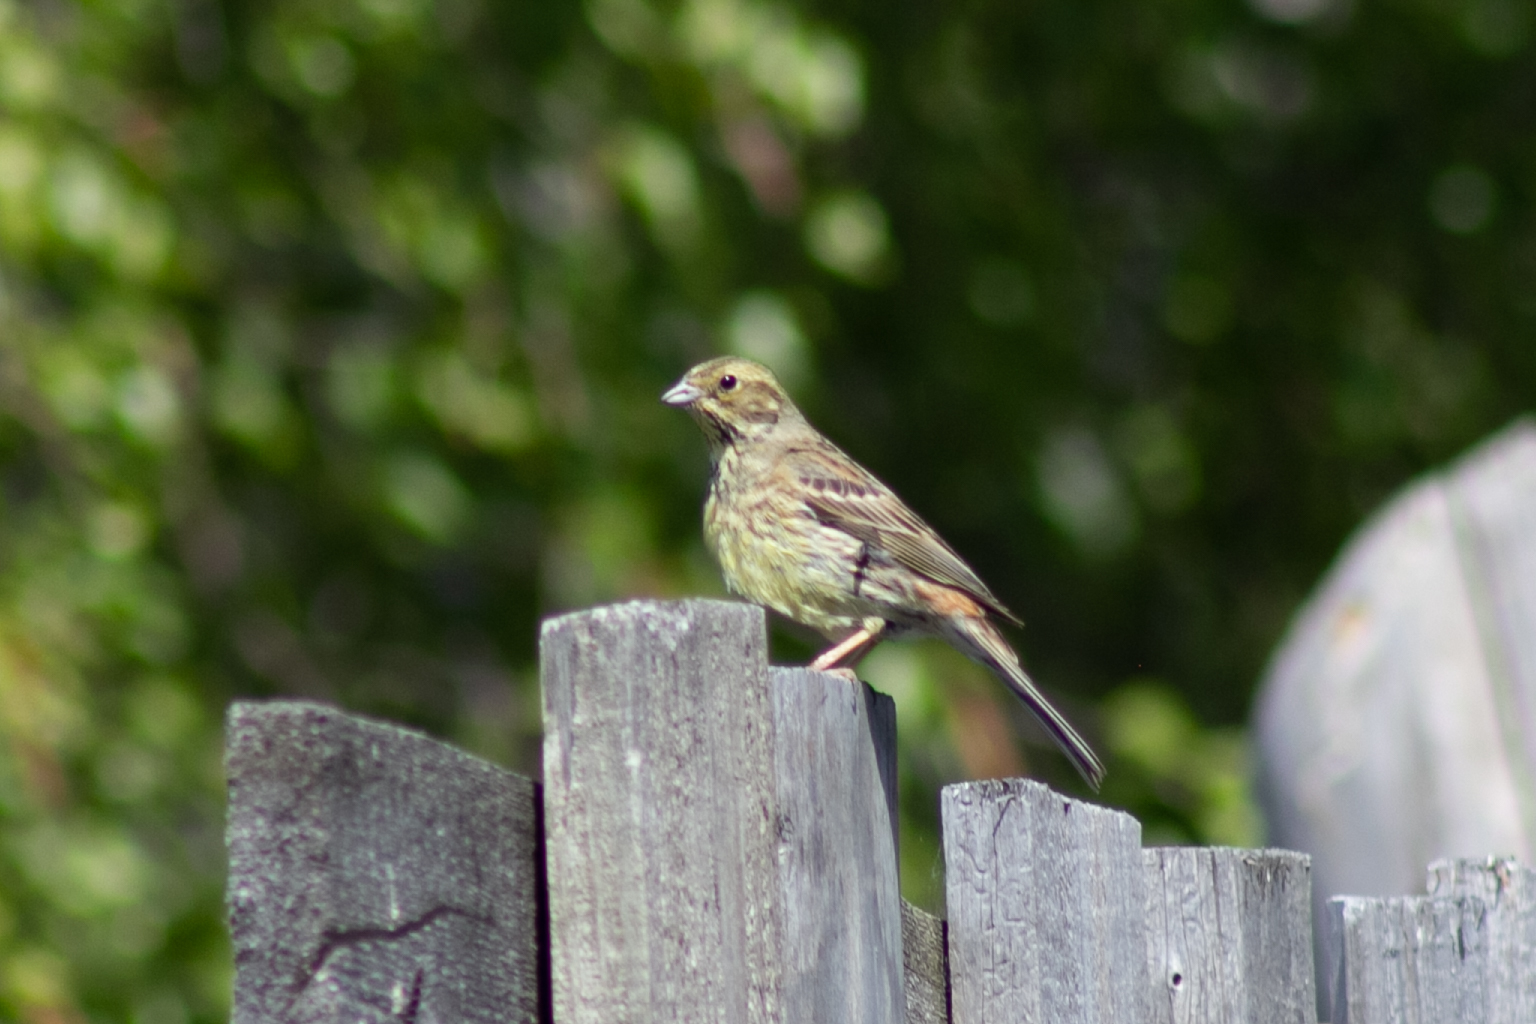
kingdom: Animalia
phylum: Chordata
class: Aves
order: Passeriformes
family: Emberizidae
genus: Emberiza
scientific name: Emberiza citrinella
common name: Yellowhammer
